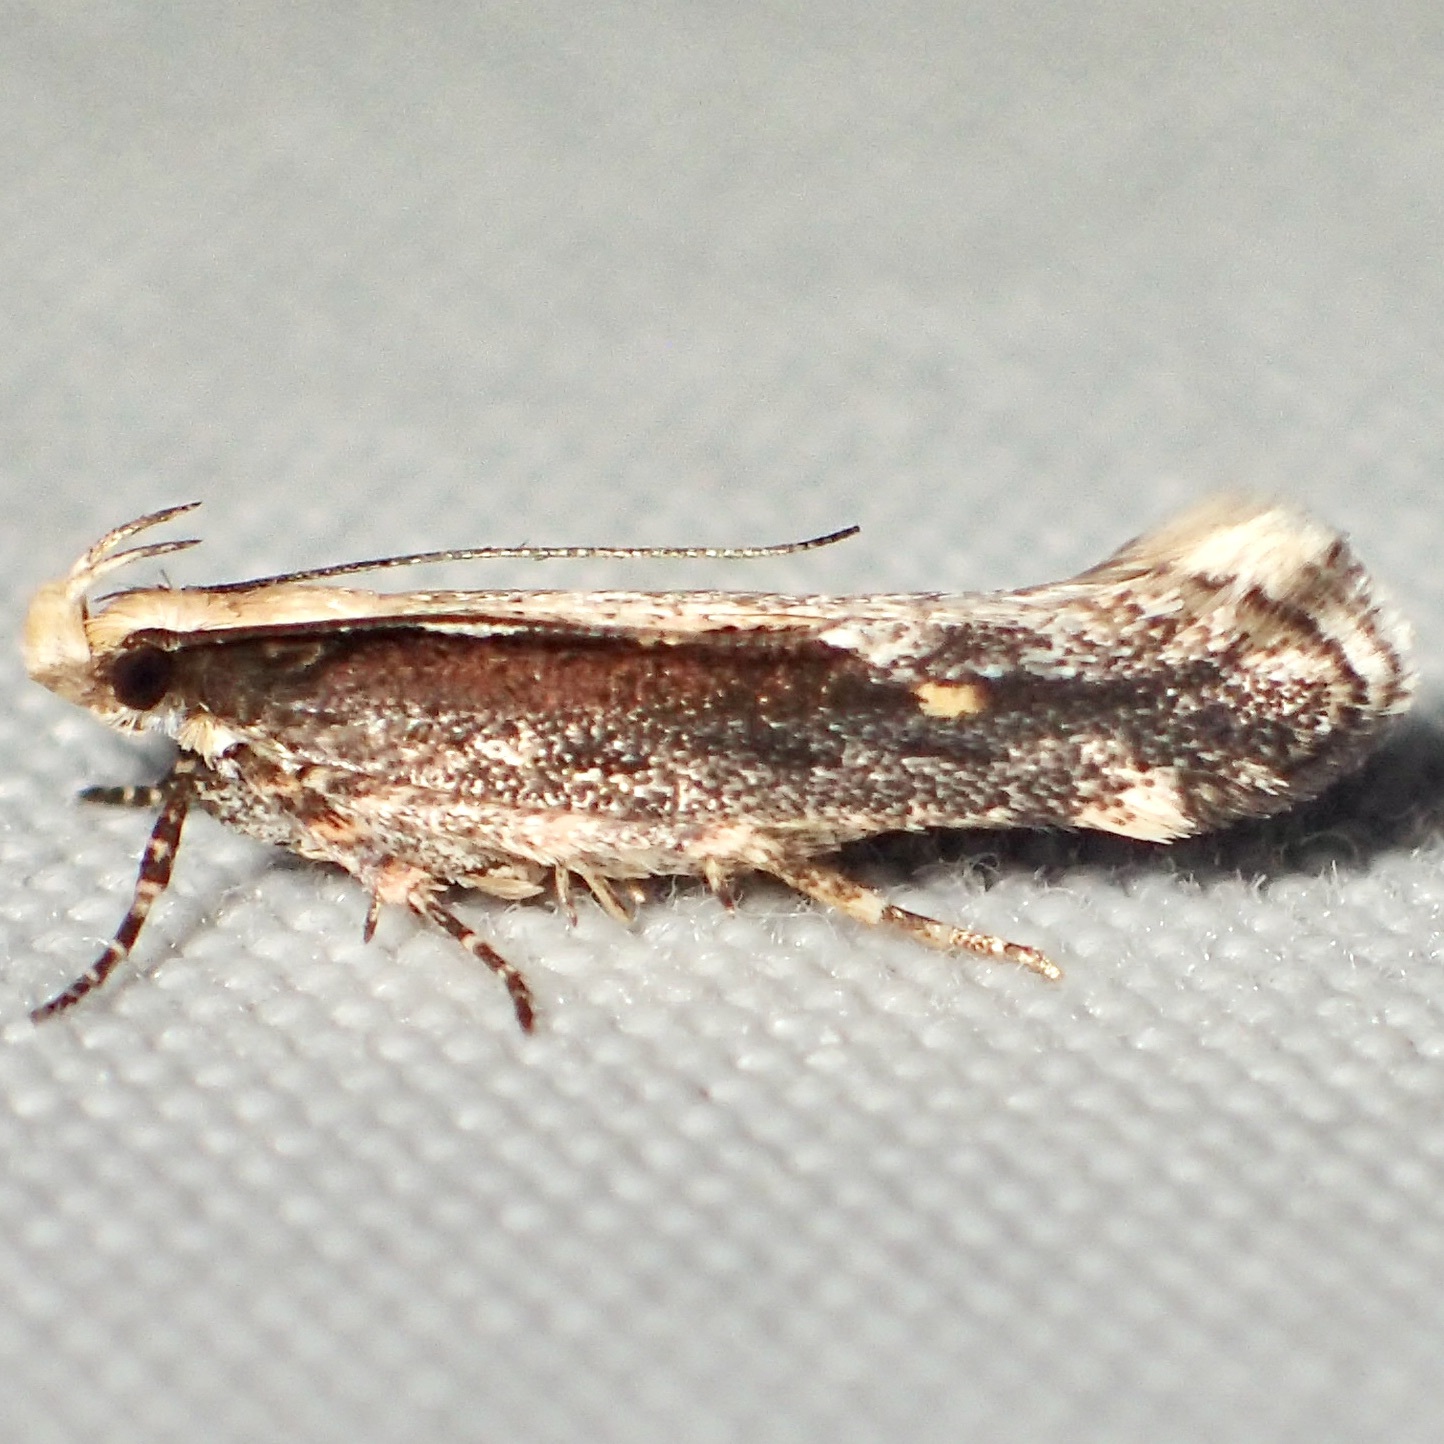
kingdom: Animalia
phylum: Arthropoda
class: Insecta
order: Lepidoptera
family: Gelechiidae
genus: Aristotelia
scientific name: Aristotelia corallina
